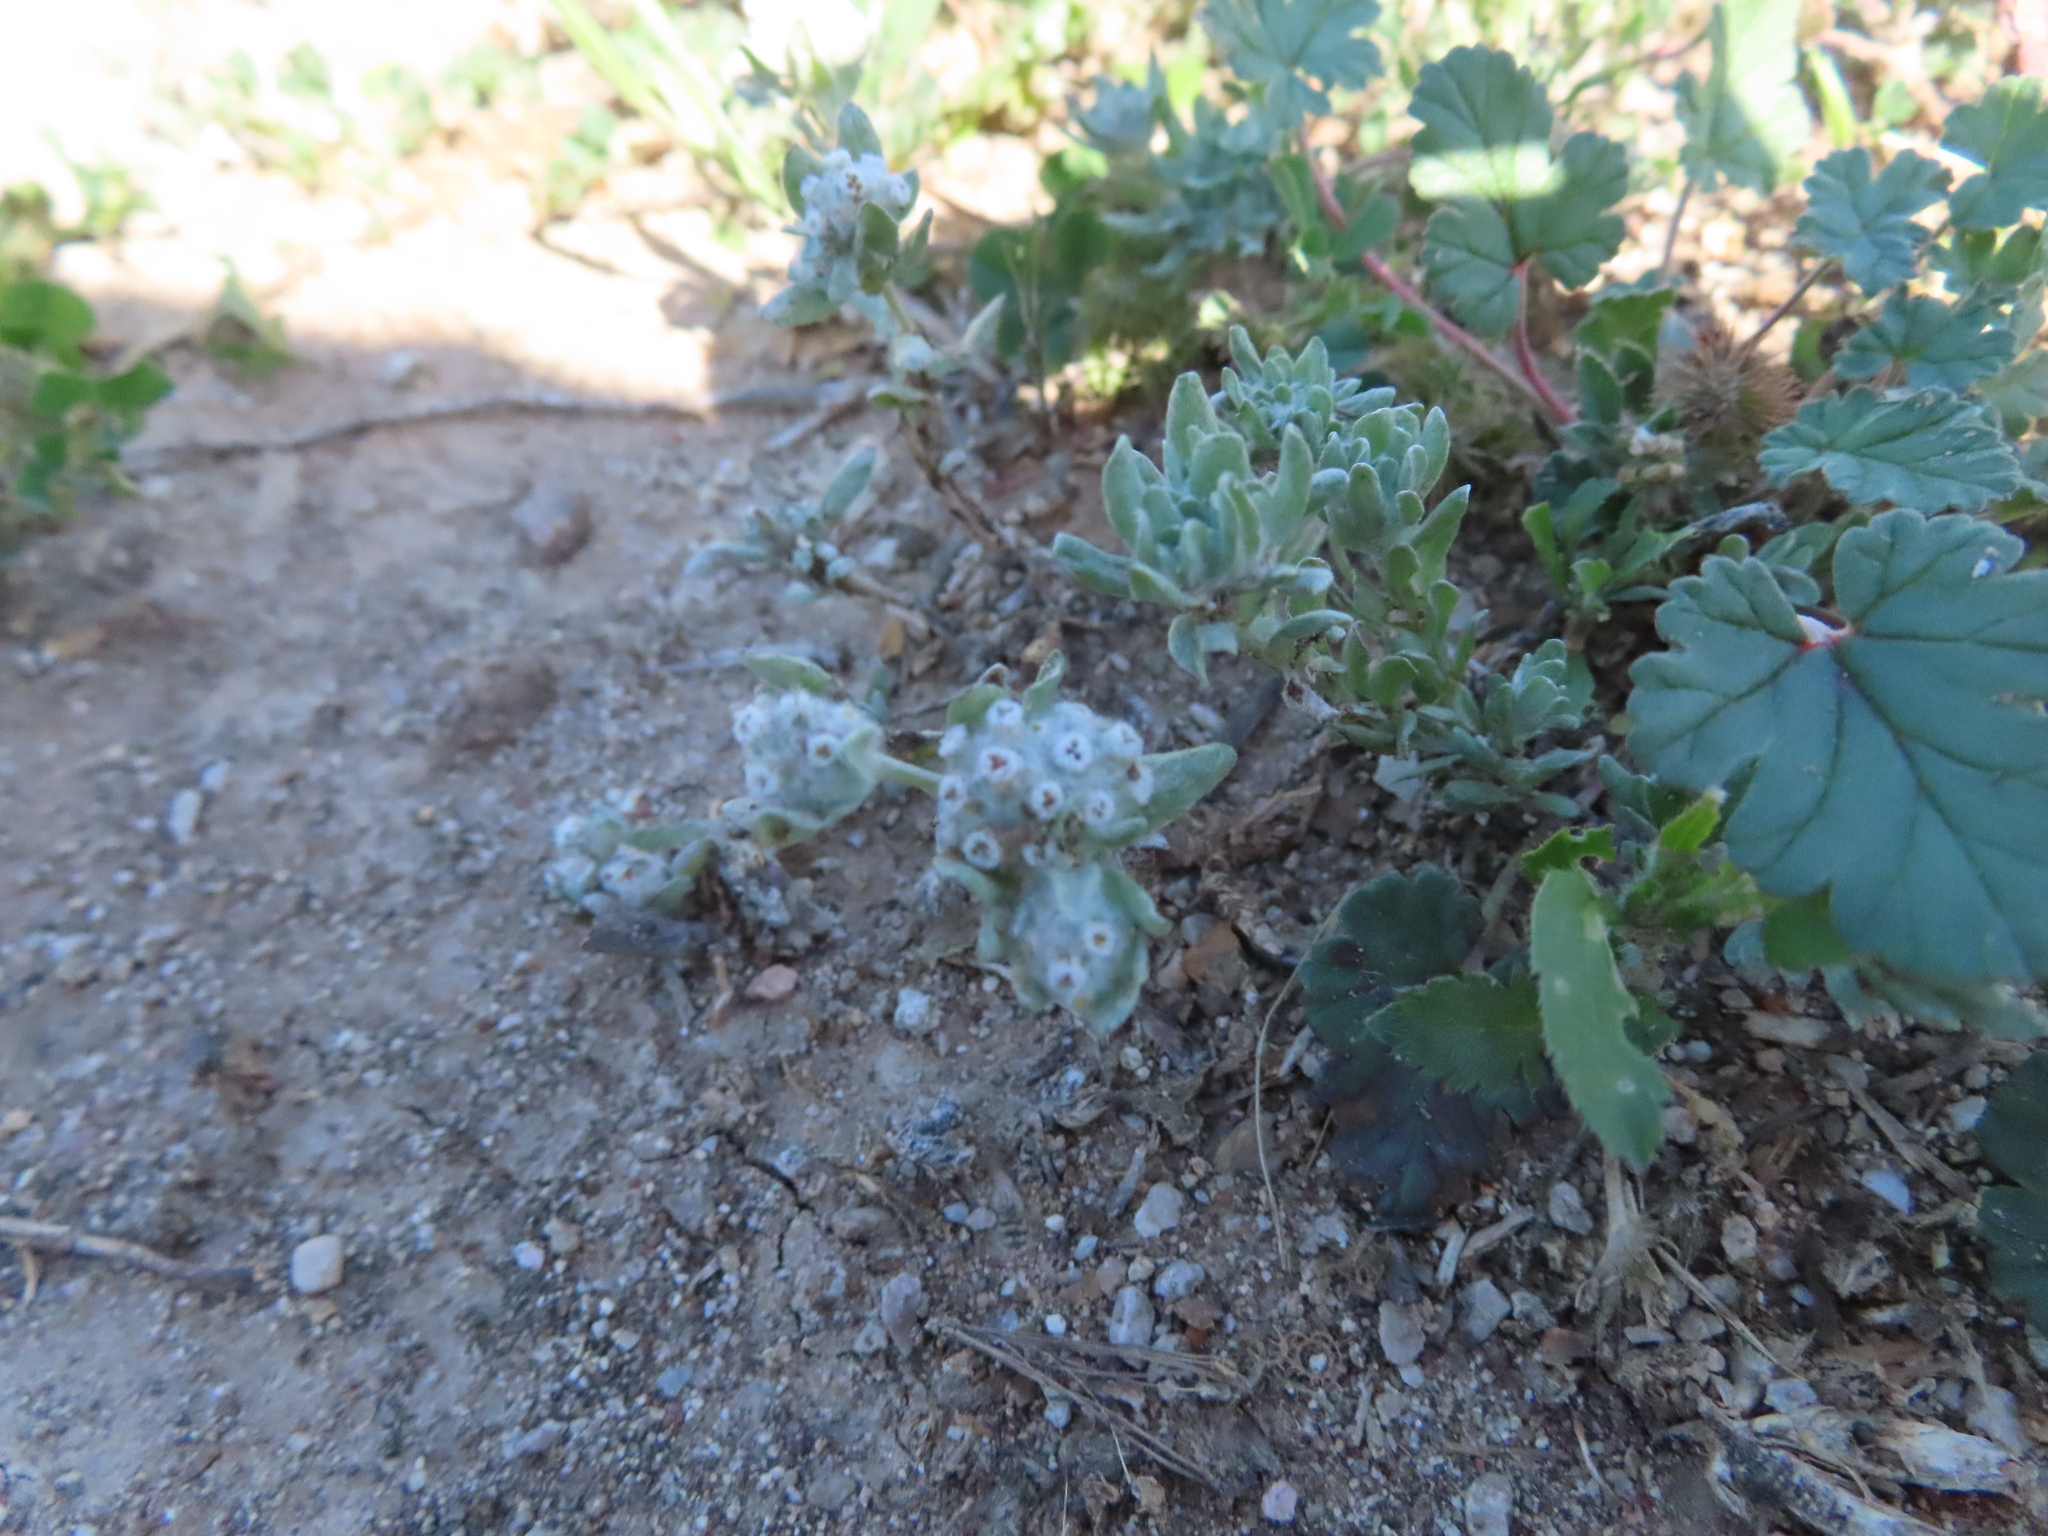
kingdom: Plantae
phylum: Tracheophyta
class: Magnoliopsida
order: Asterales
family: Asteraceae
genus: Diaperia
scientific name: Diaperia verna
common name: Many-stem rabbit-tobacco
